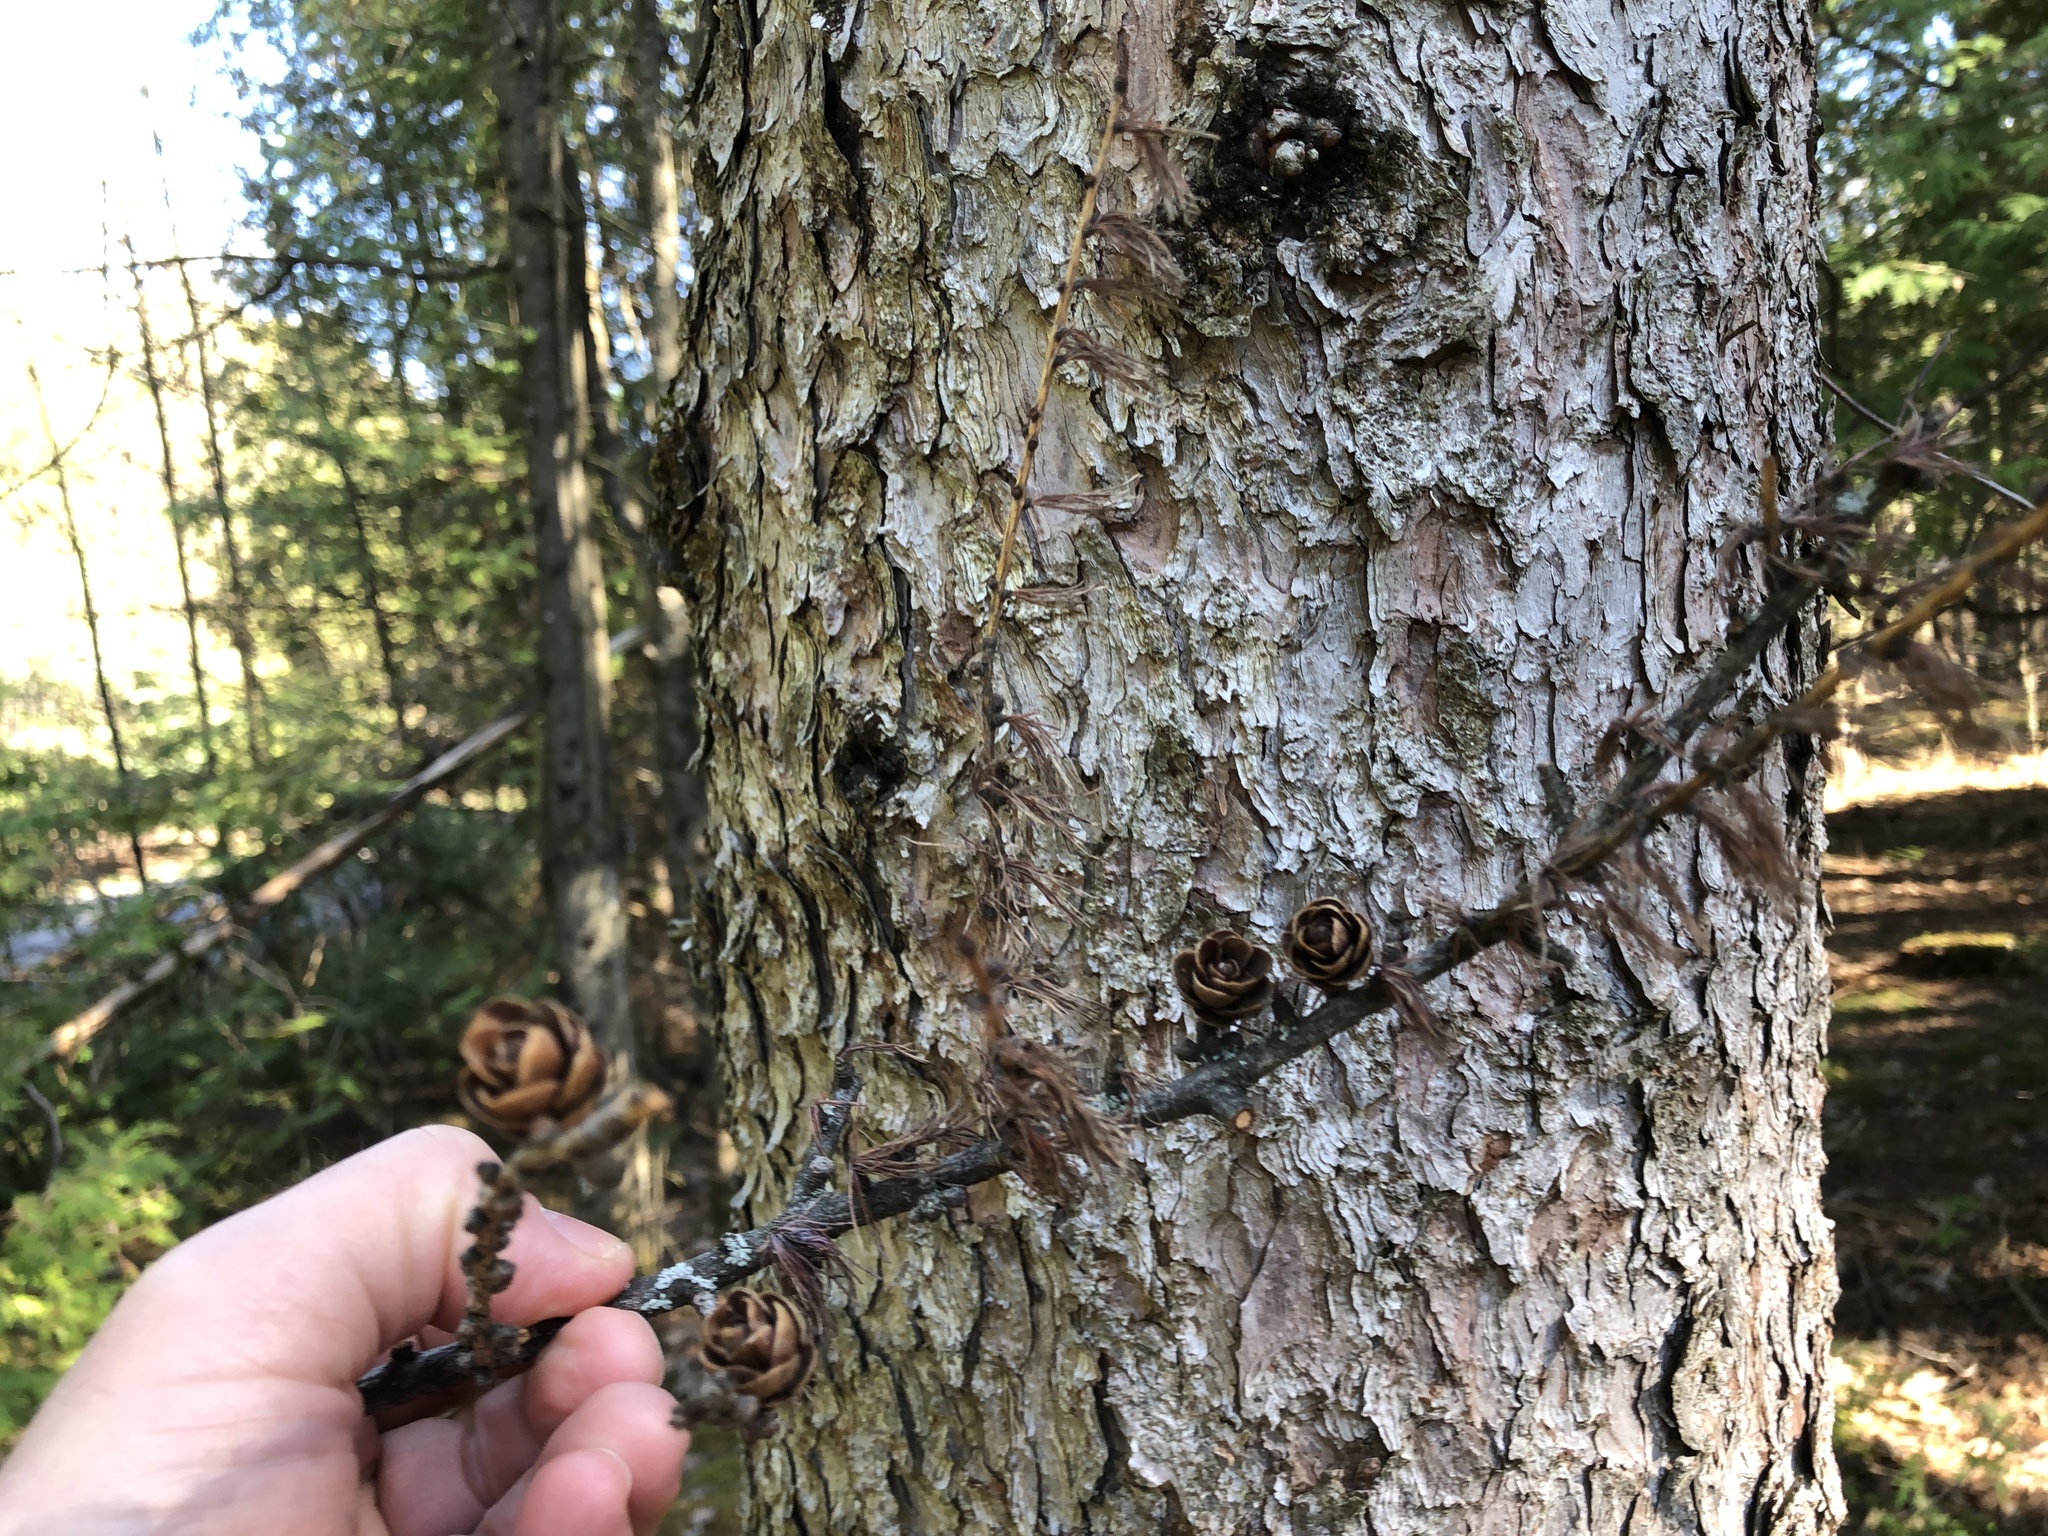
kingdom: Plantae
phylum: Tracheophyta
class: Pinopsida
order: Pinales
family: Pinaceae
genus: Larix
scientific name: Larix laricina
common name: American larch
